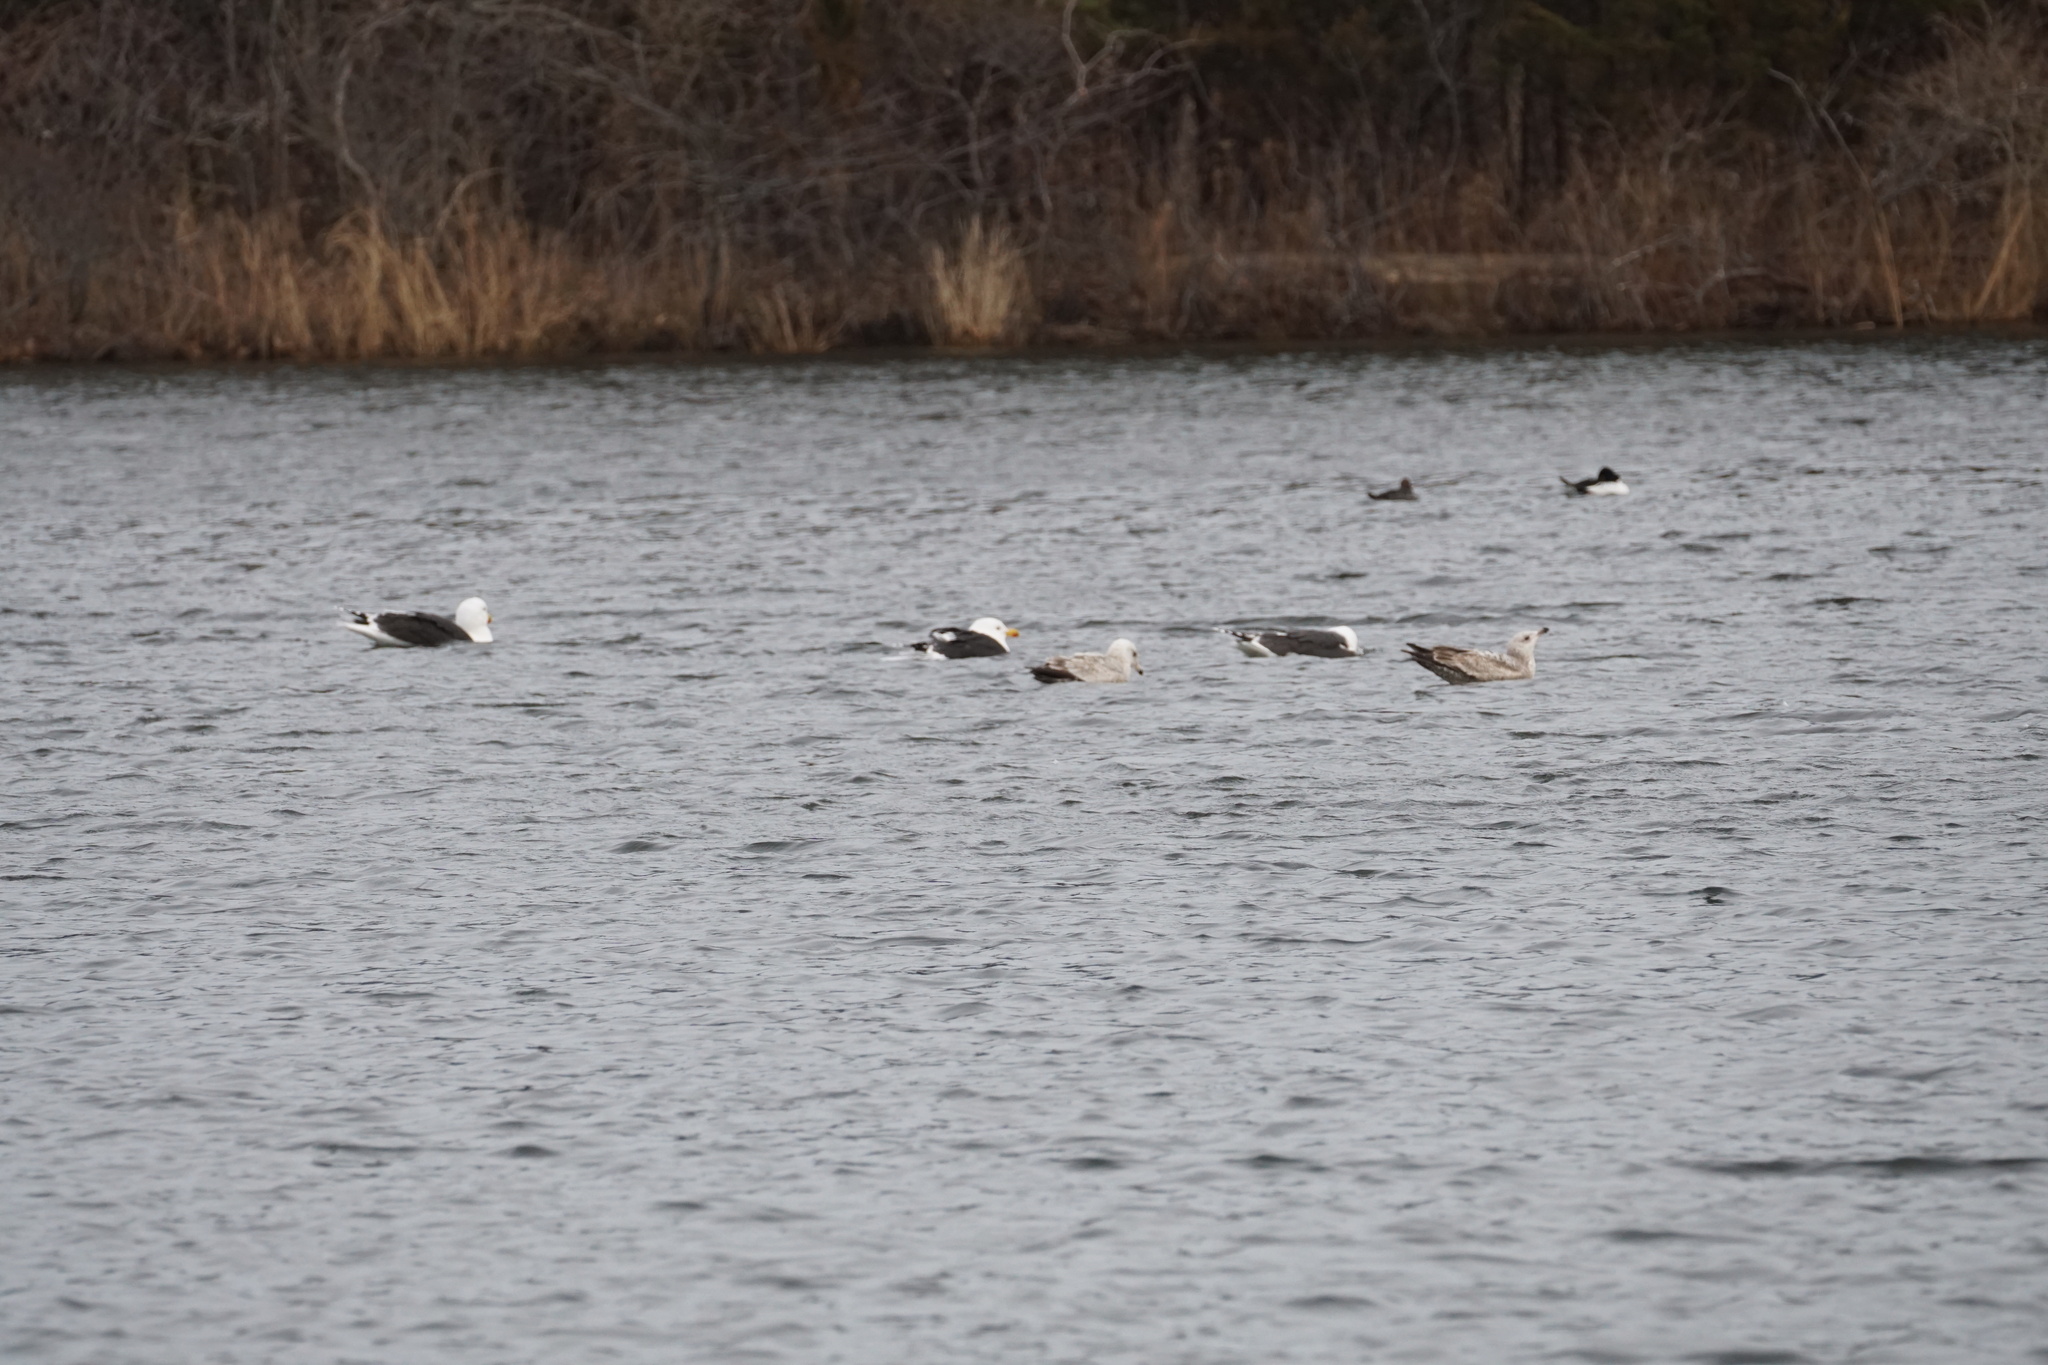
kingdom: Animalia
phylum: Chordata
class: Aves
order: Charadriiformes
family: Laridae
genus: Larus
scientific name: Larus marinus
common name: Great black-backed gull
